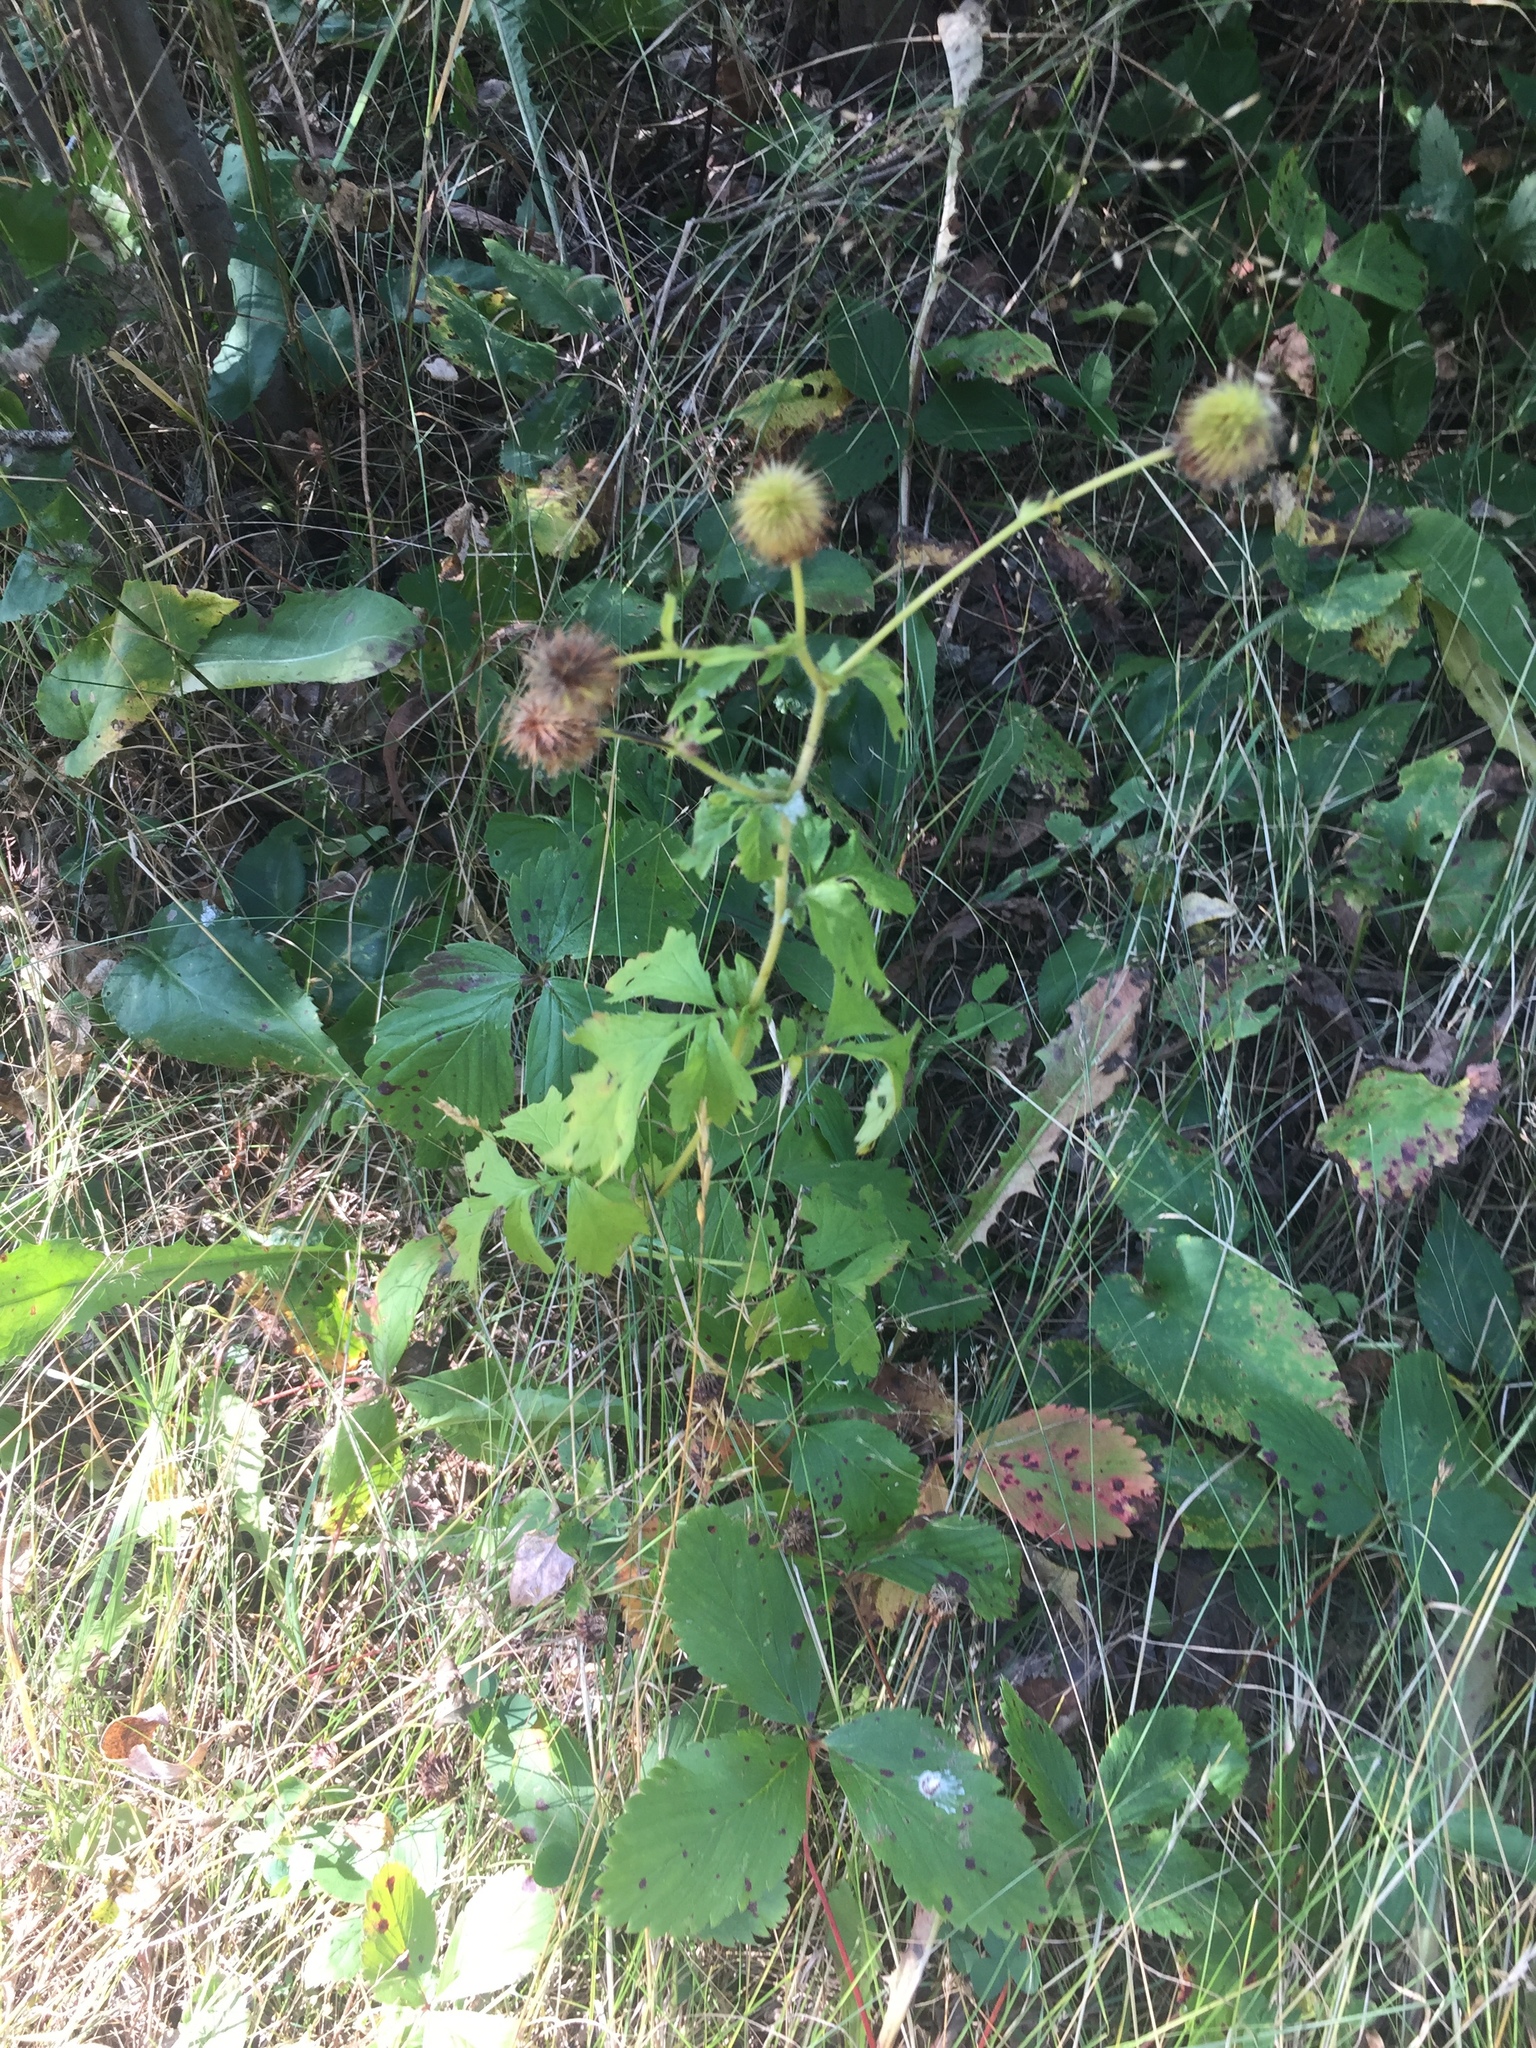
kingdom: Plantae
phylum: Tracheophyta
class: Magnoliopsida
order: Rosales
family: Rosaceae
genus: Geum
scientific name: Geum aleppicum
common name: Yellow avens
